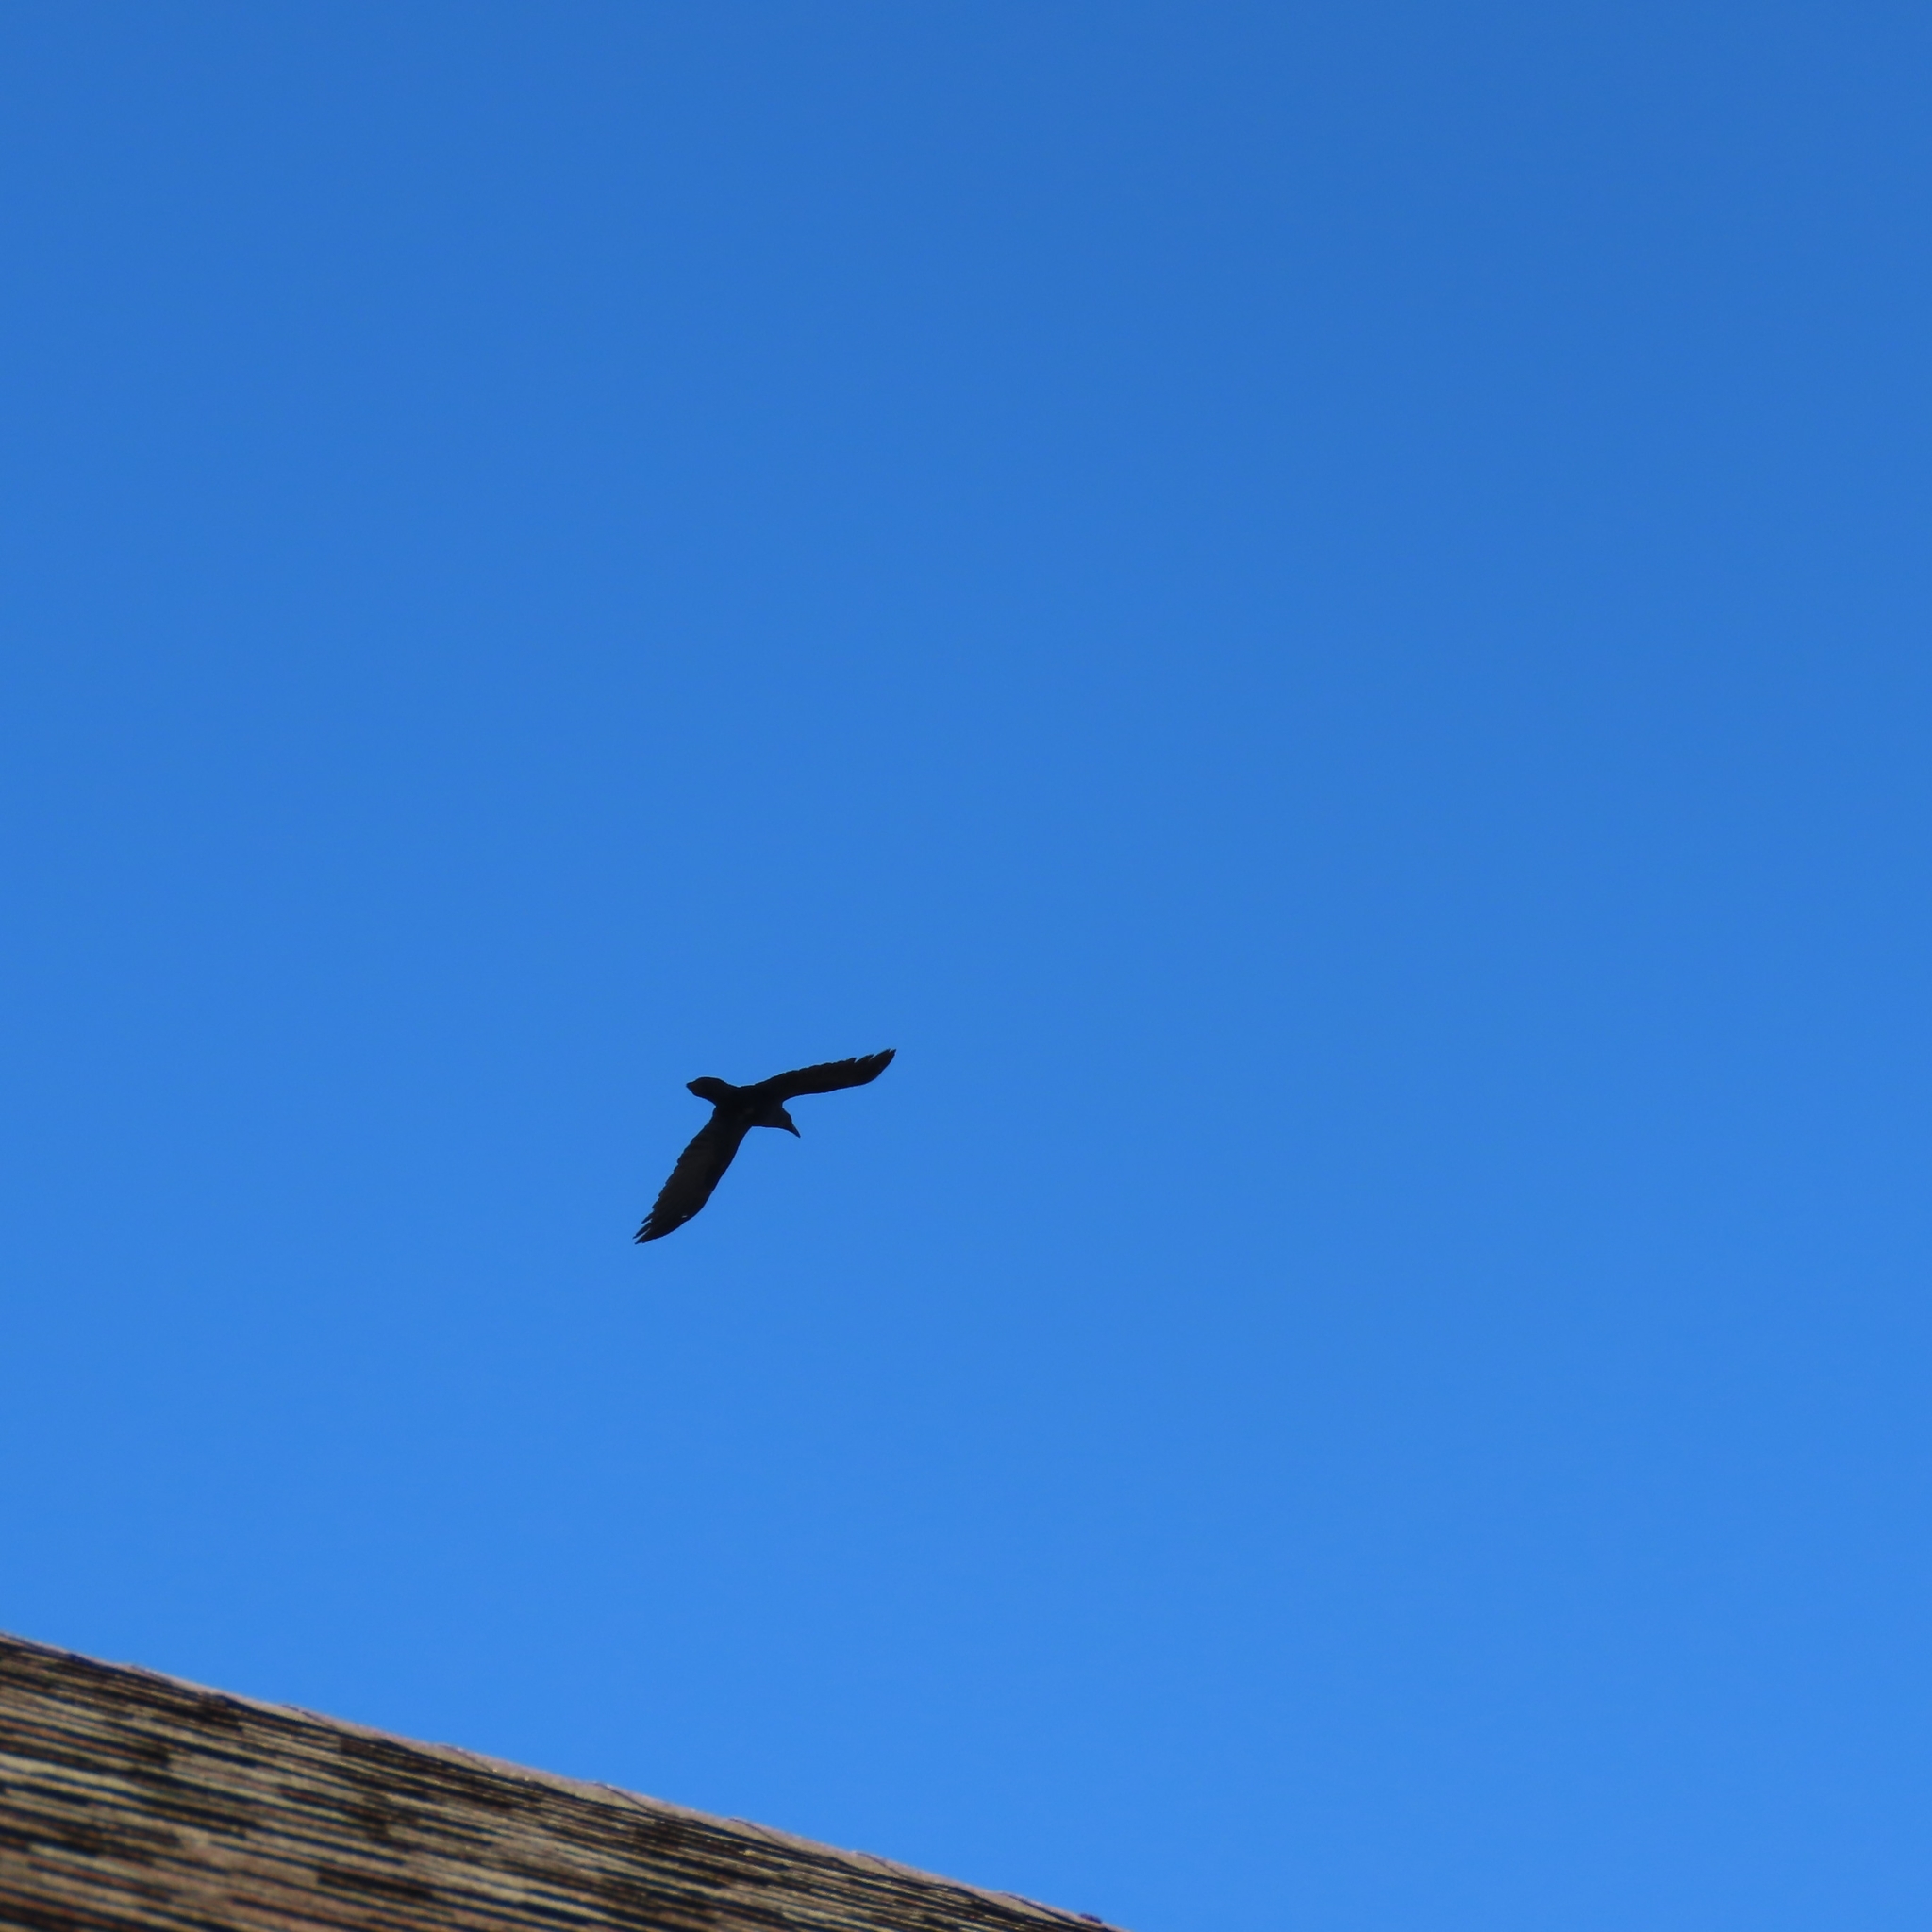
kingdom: Animalia
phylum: Chordata
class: Aves
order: Passeriformes
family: Corvidae
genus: Corvus
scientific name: Corvus corax
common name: Common raven
